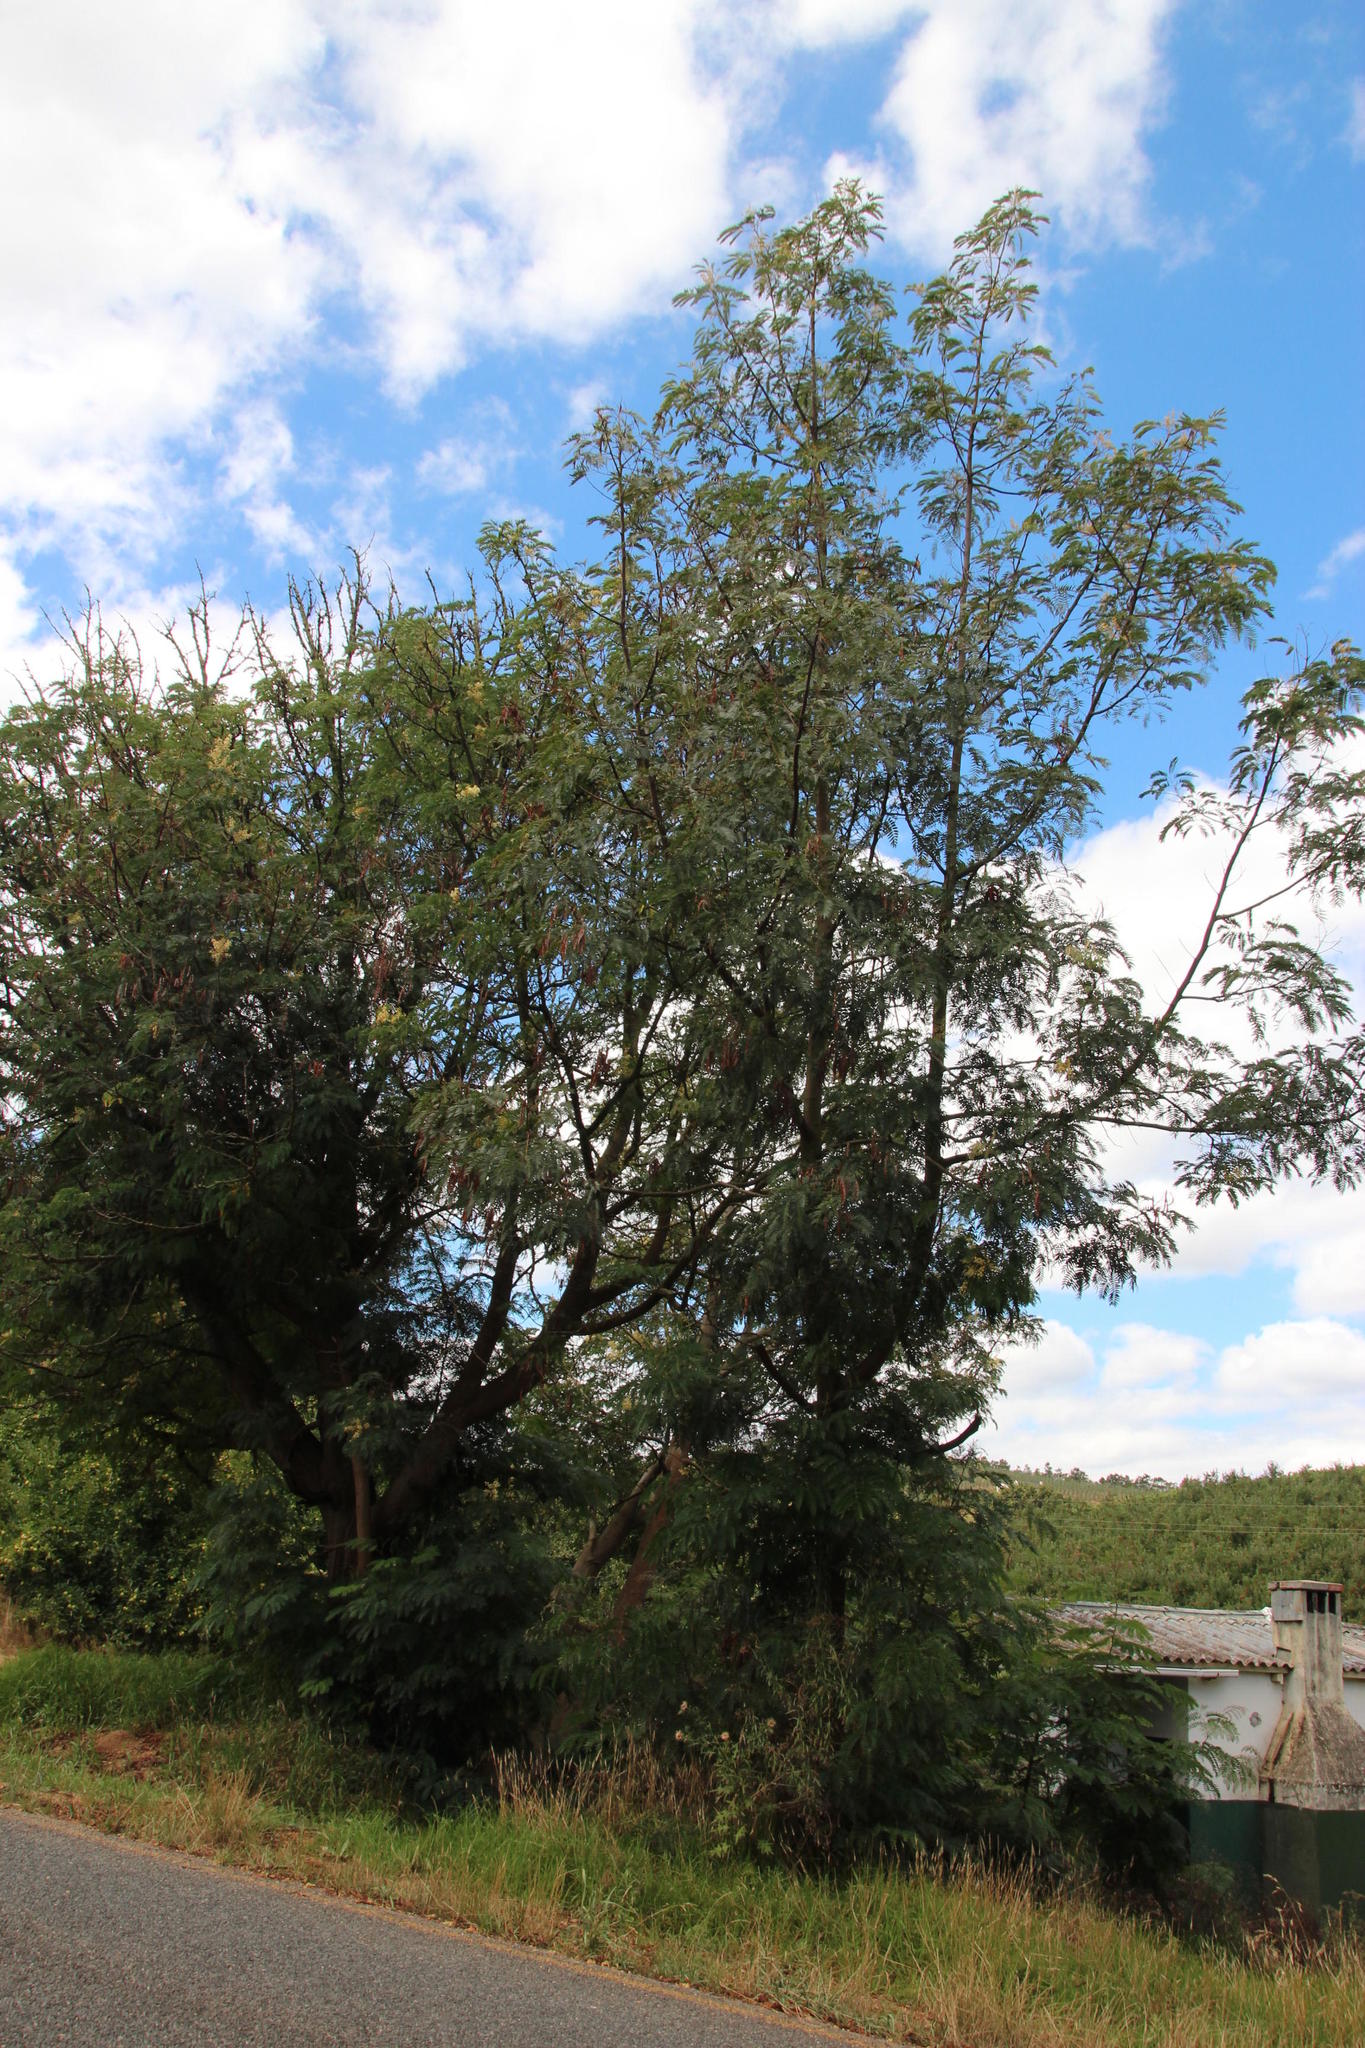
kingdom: Plantae
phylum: Tracheophyta
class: Magnoliopsida
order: Fabales
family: Fabaceae
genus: Acacia
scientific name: Acacia elata
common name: Cedar wattle
